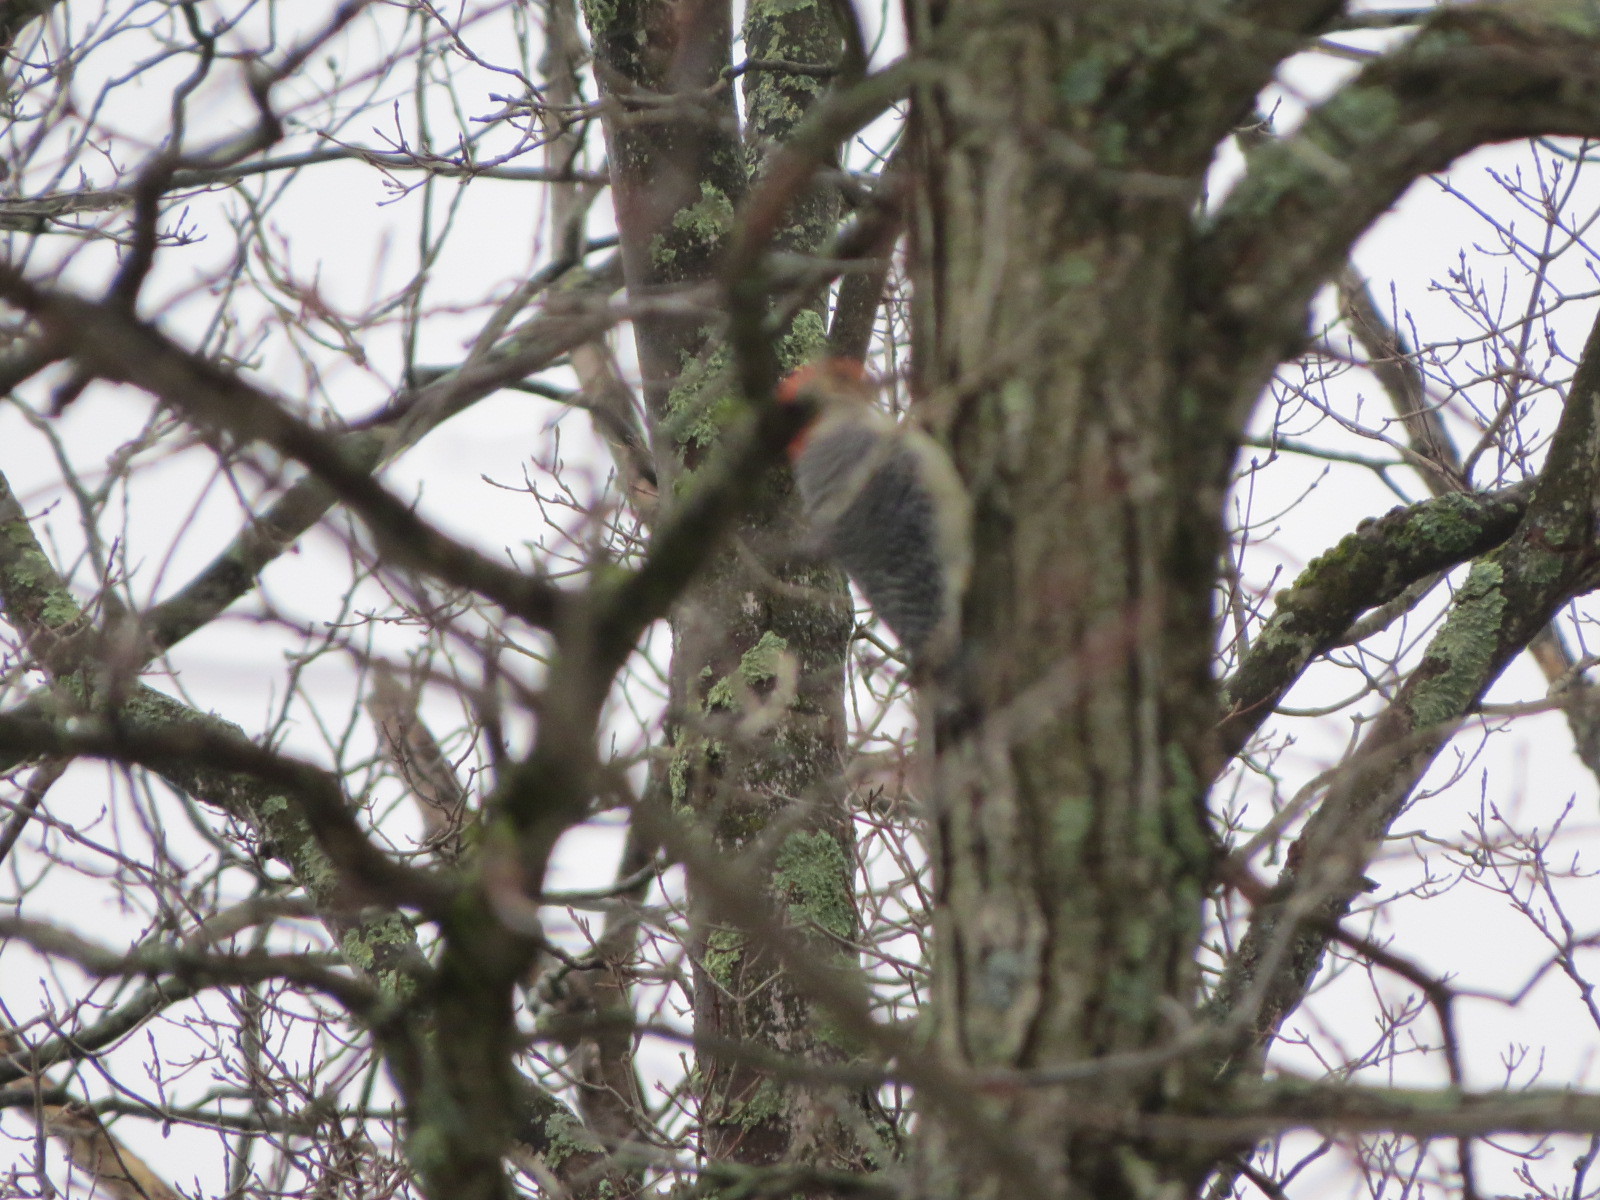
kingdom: Animalia
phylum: Chordata
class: Aves
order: Piciformes
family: Picidae
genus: Melanerpes
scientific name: Melanerpes carolinus
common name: Red-bellied woodpecker
